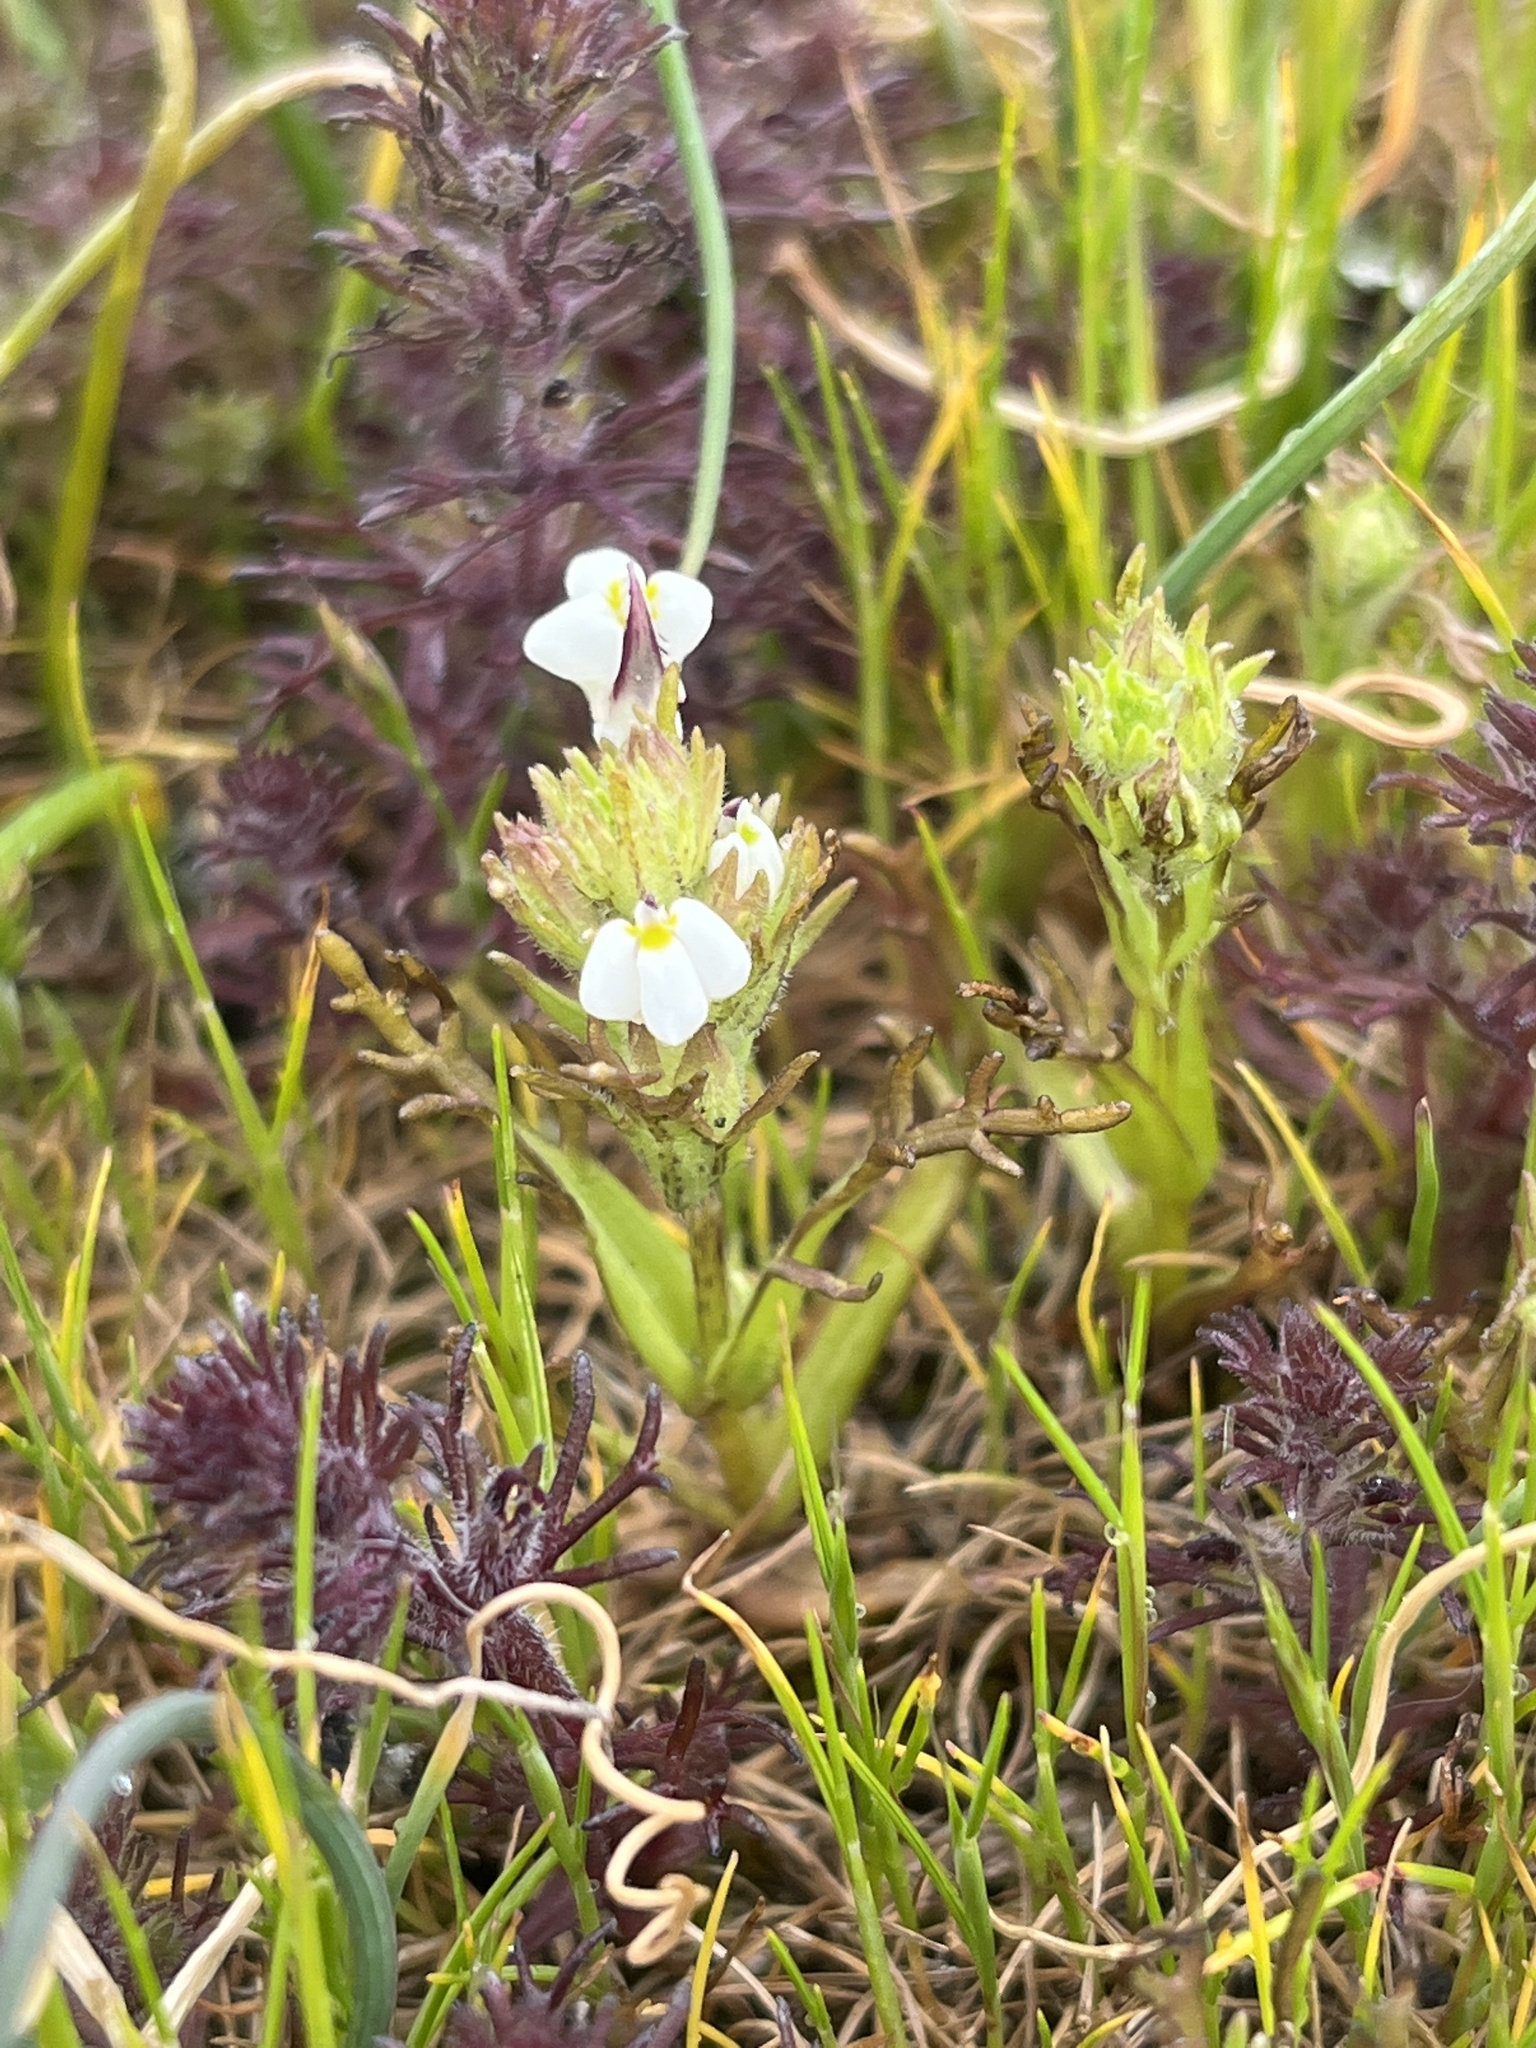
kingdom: Plantae
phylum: Tracheophyta
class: Magnoliopsida
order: Lamiales
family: Orobanchaceae
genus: Triphysaria
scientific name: Triphysaria versicolor
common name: Bearded false owl-clover
